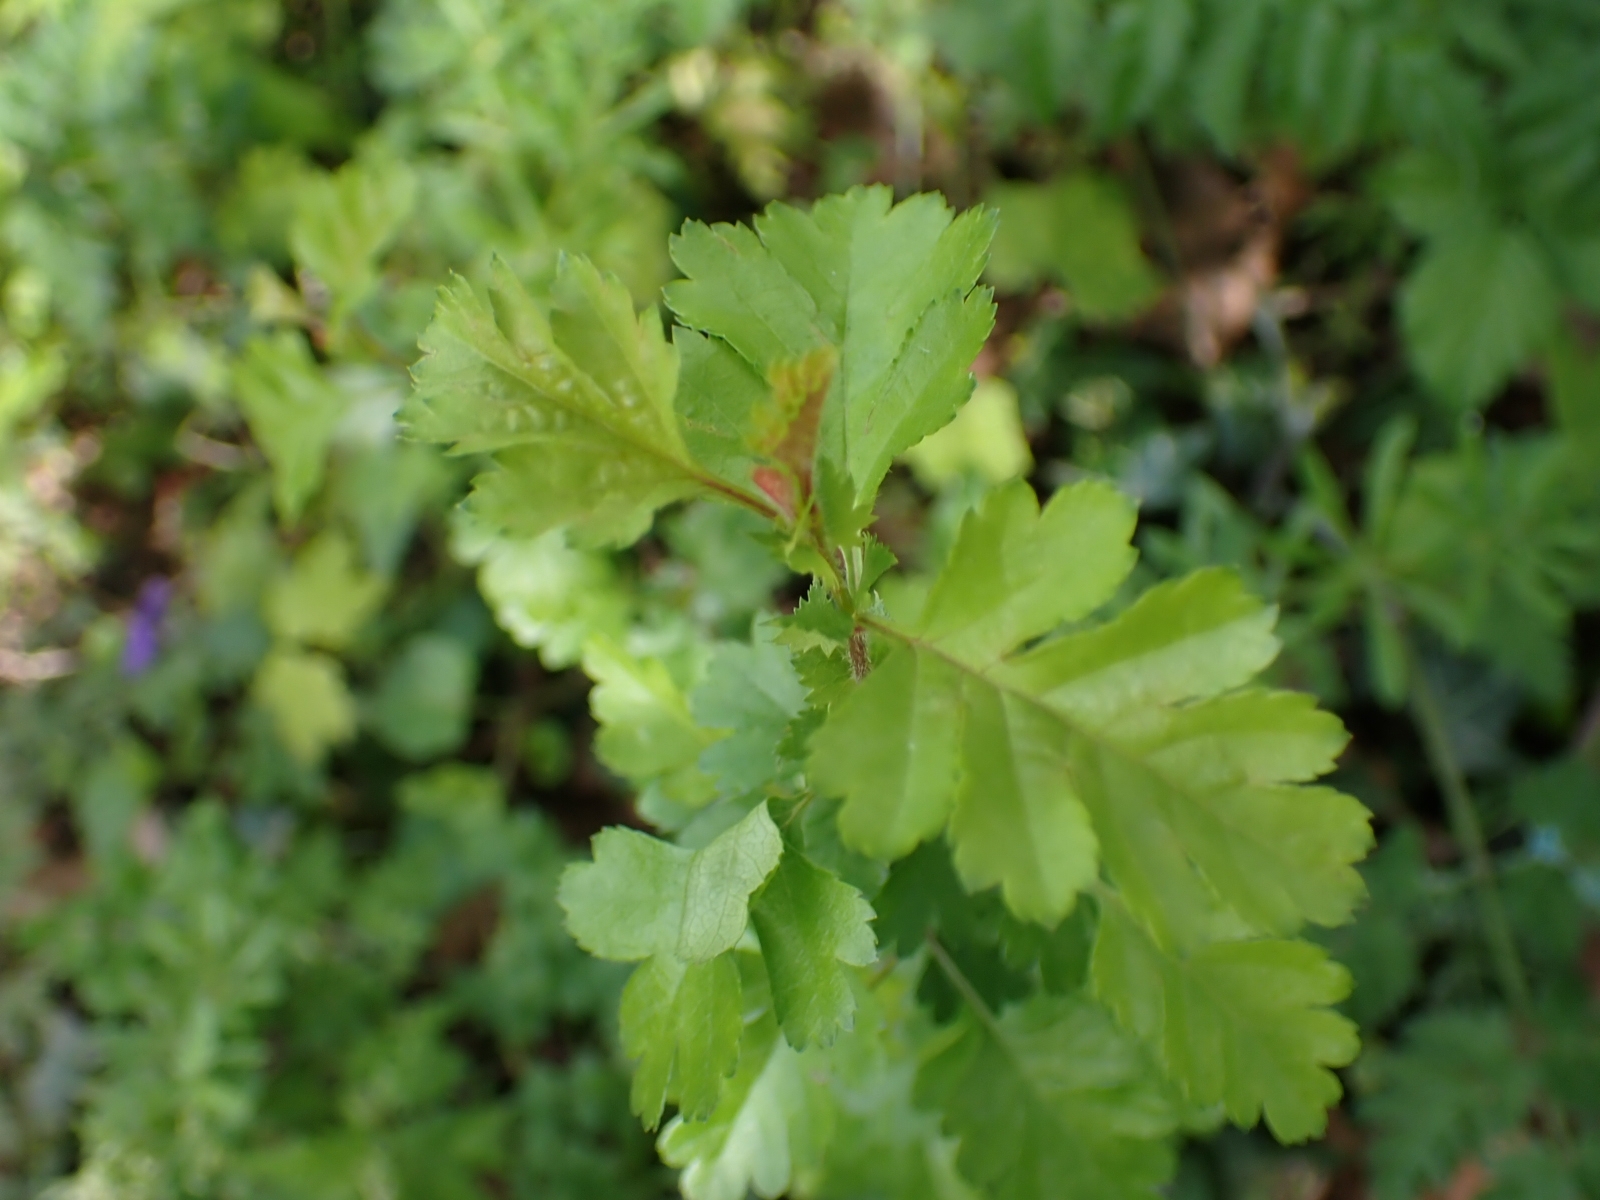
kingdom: Plantae
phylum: Tracheophyta
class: Magnoliopsida
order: Rosales
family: Rosaceae
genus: Crataegus
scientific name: Crataegus monogyna
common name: Hawthorn
